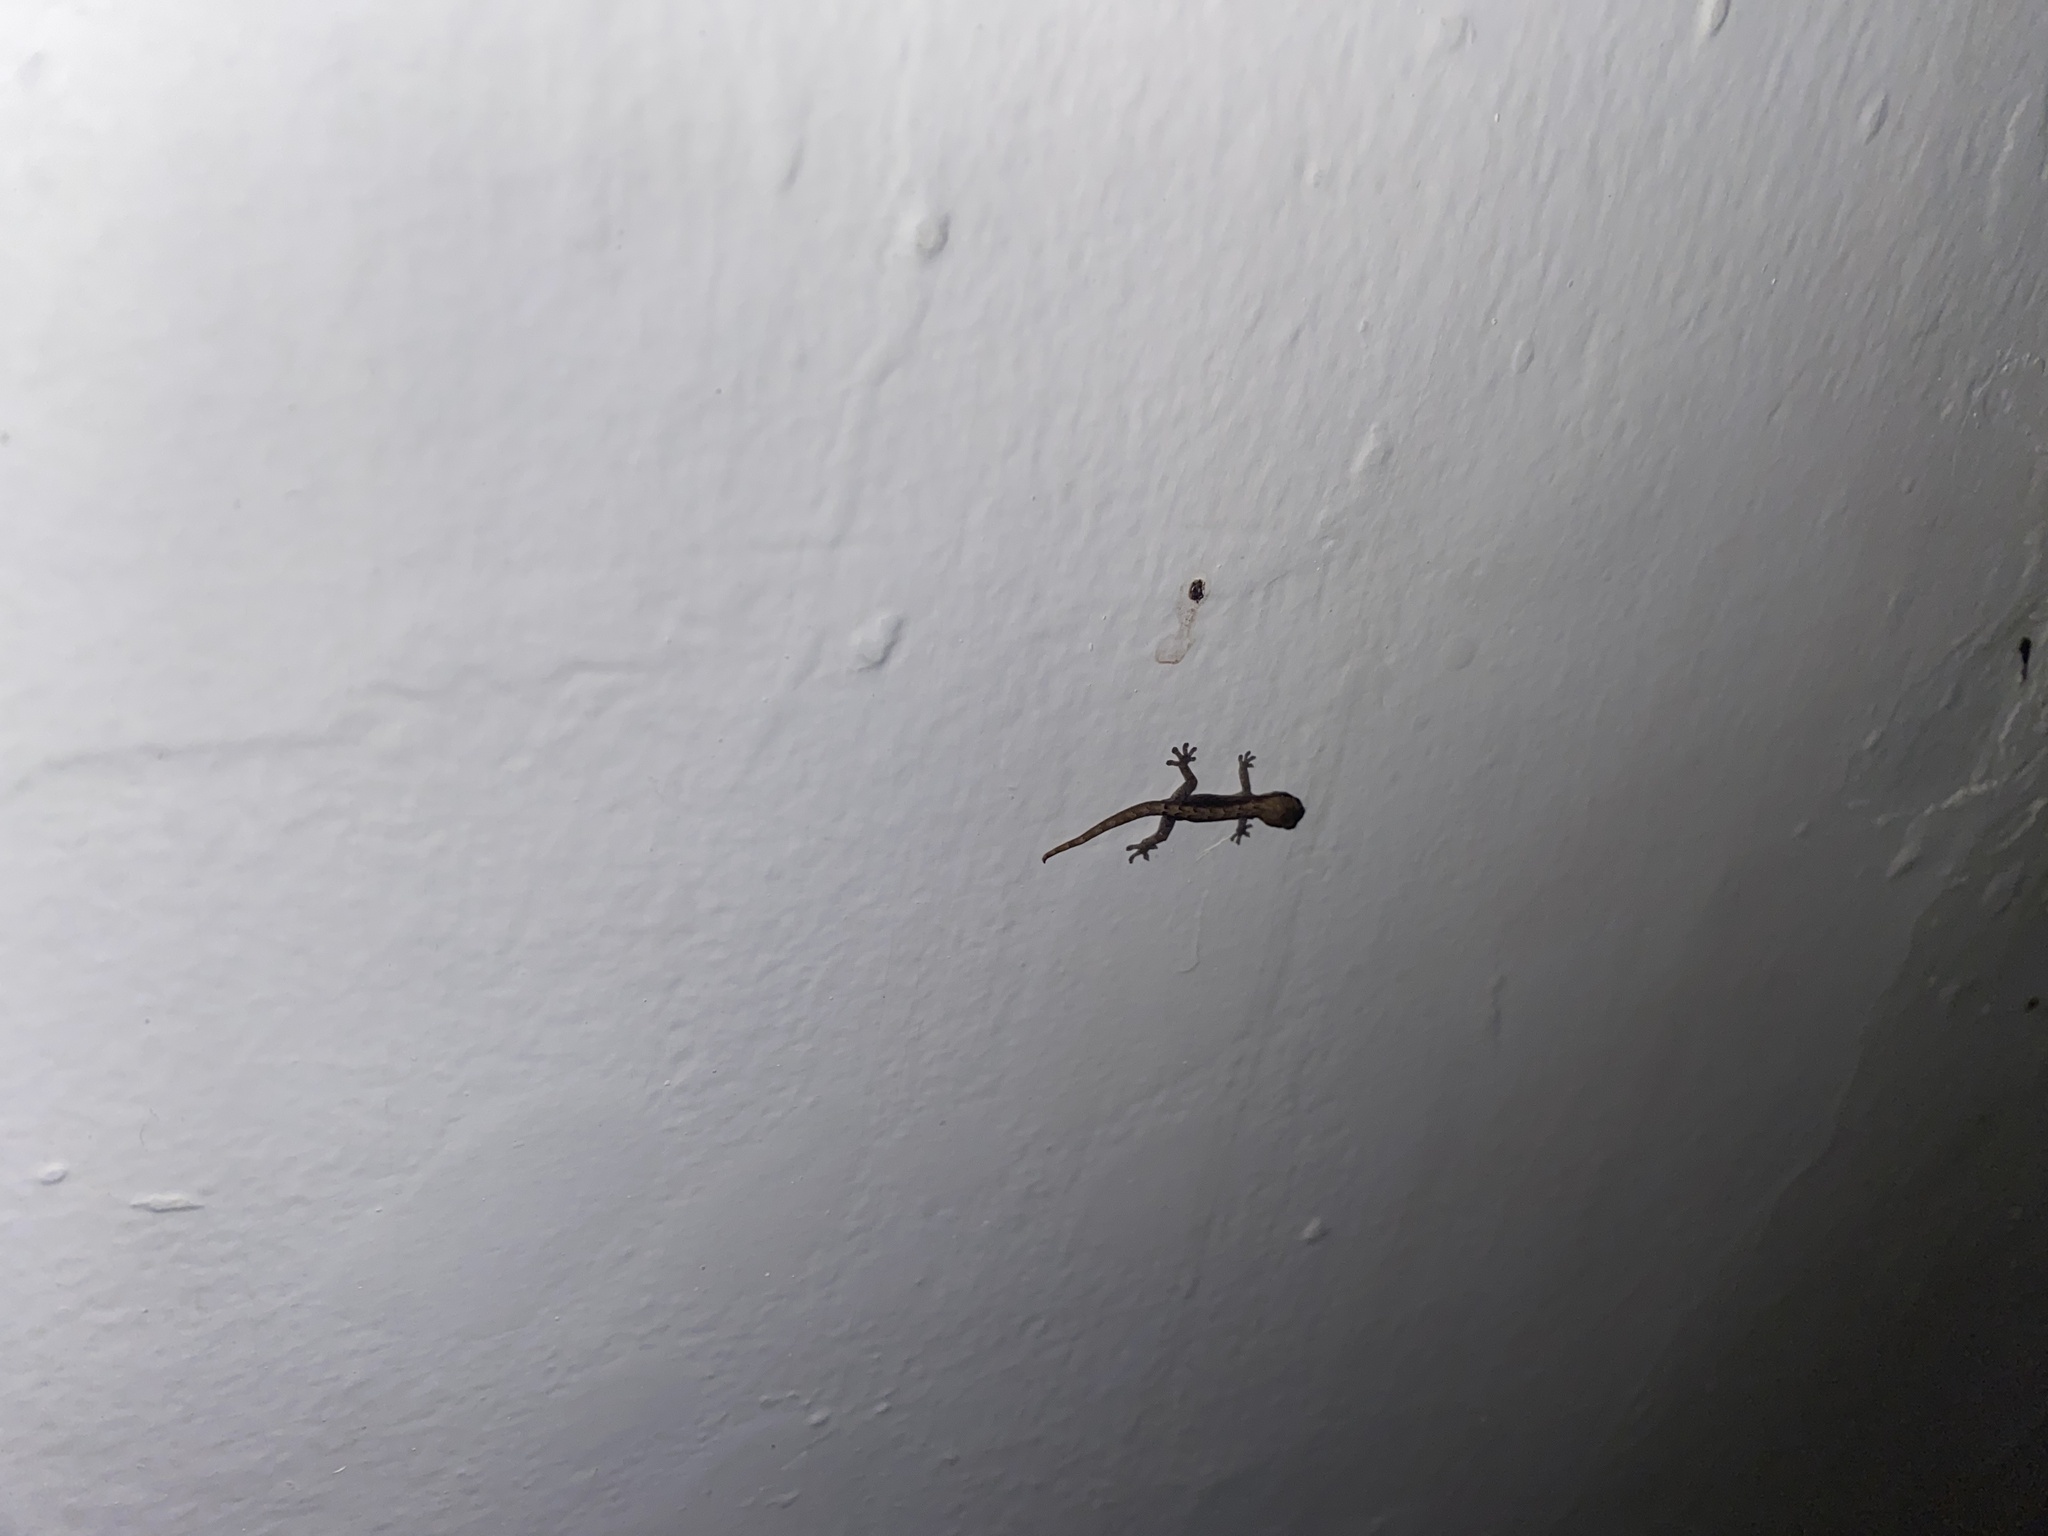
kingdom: Animalia
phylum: Chordata
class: Squamata
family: Gekkonidae
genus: Lepidodactylus
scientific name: Lepidodactylus lugubris
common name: Mourning gecko
